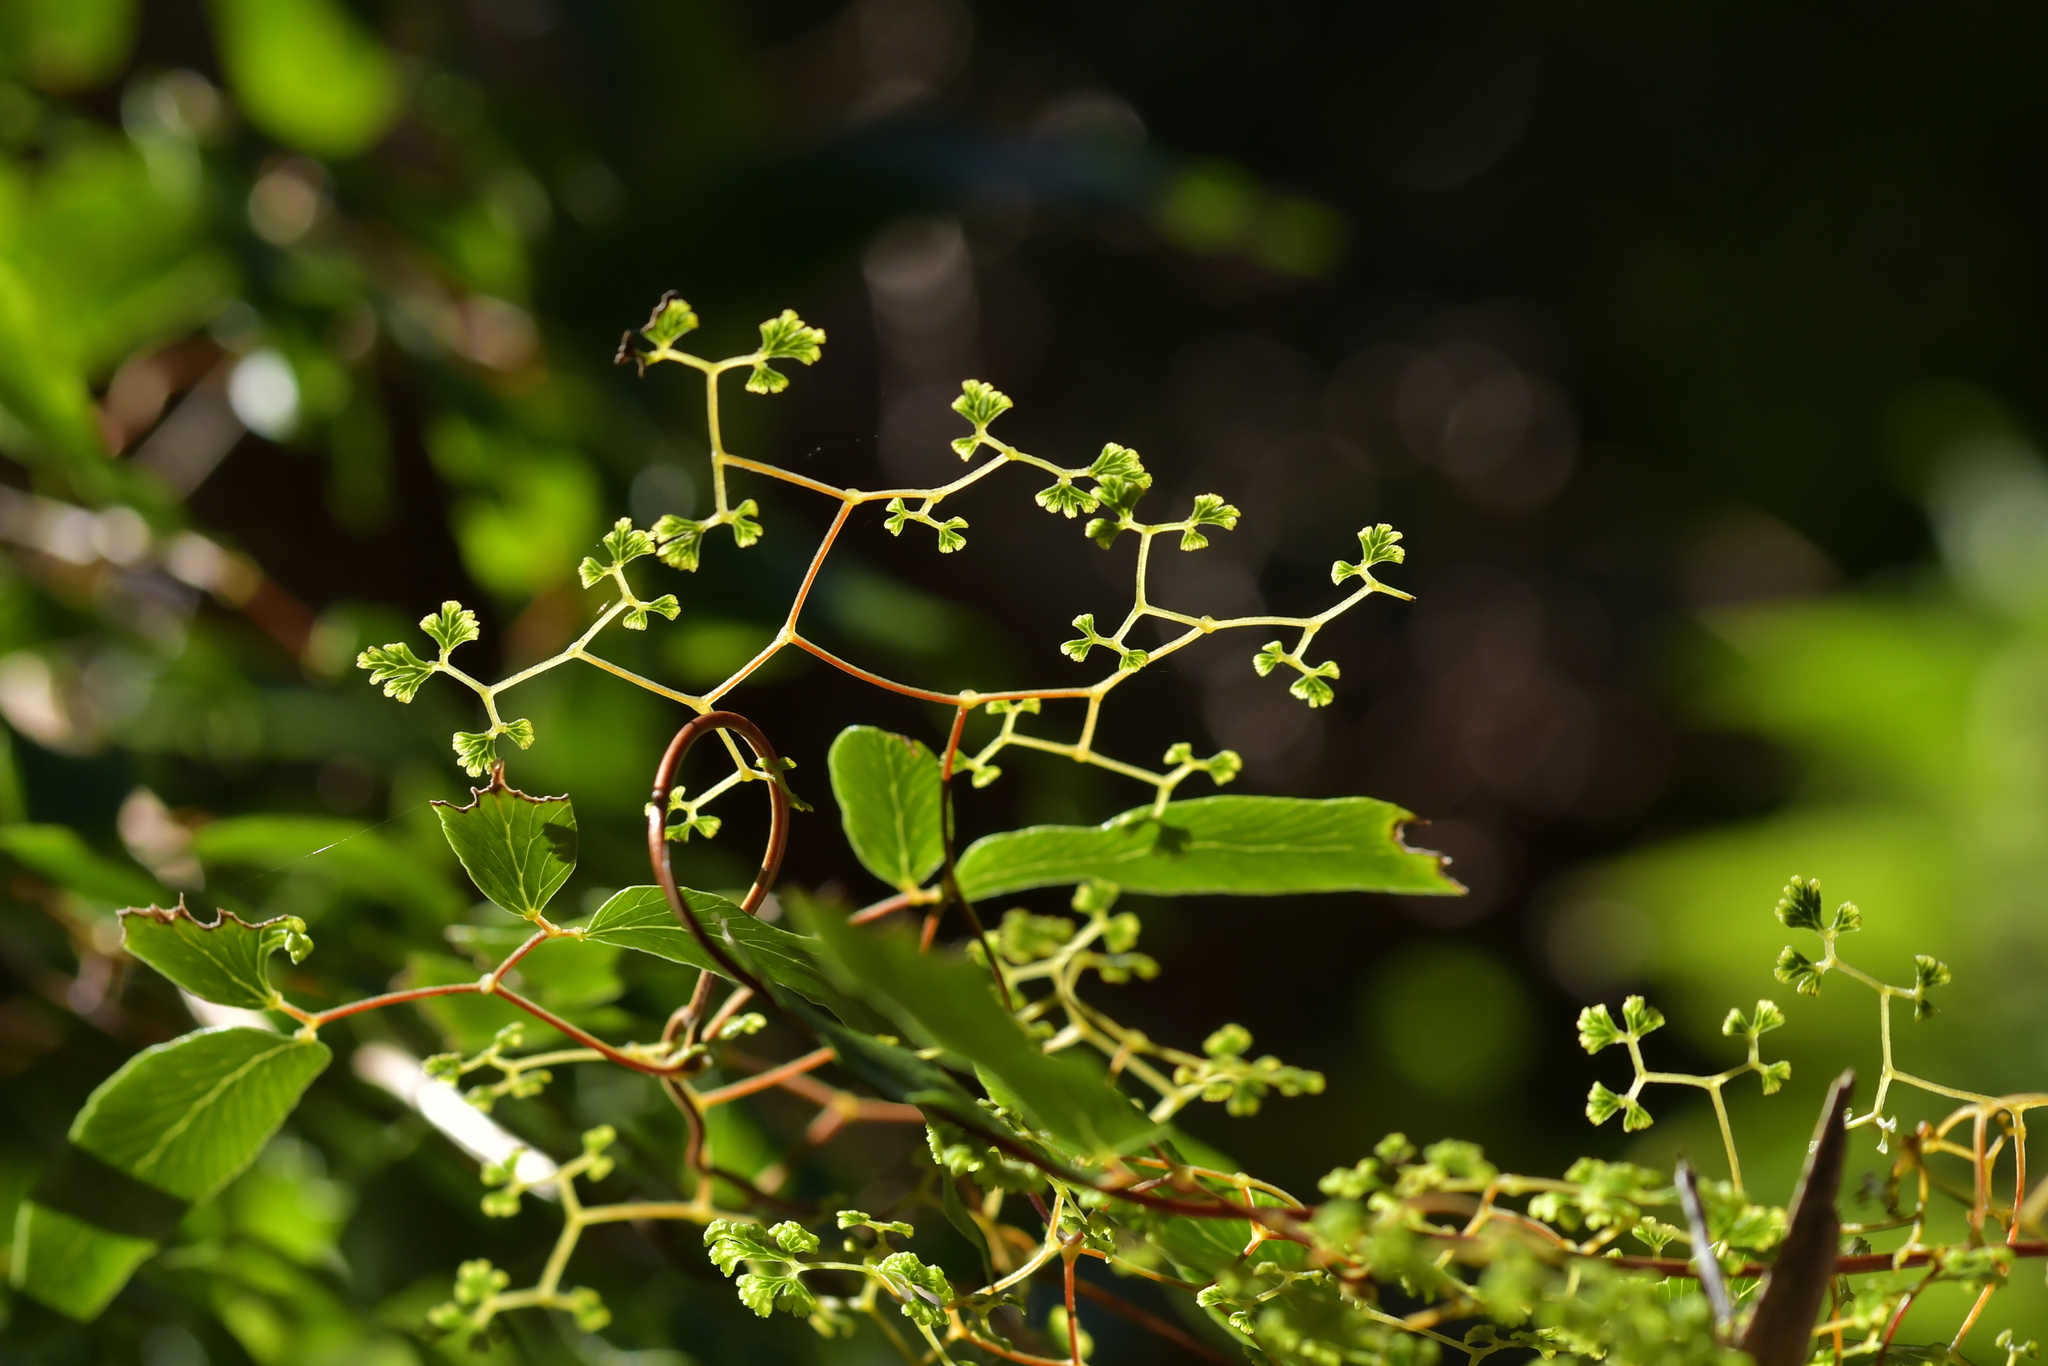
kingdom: Plantae
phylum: Tracheophyta
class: Polypodiopsida
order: Schizaeales
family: Lygodiaceae
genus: Lygodium
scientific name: Lygodium articulatum
